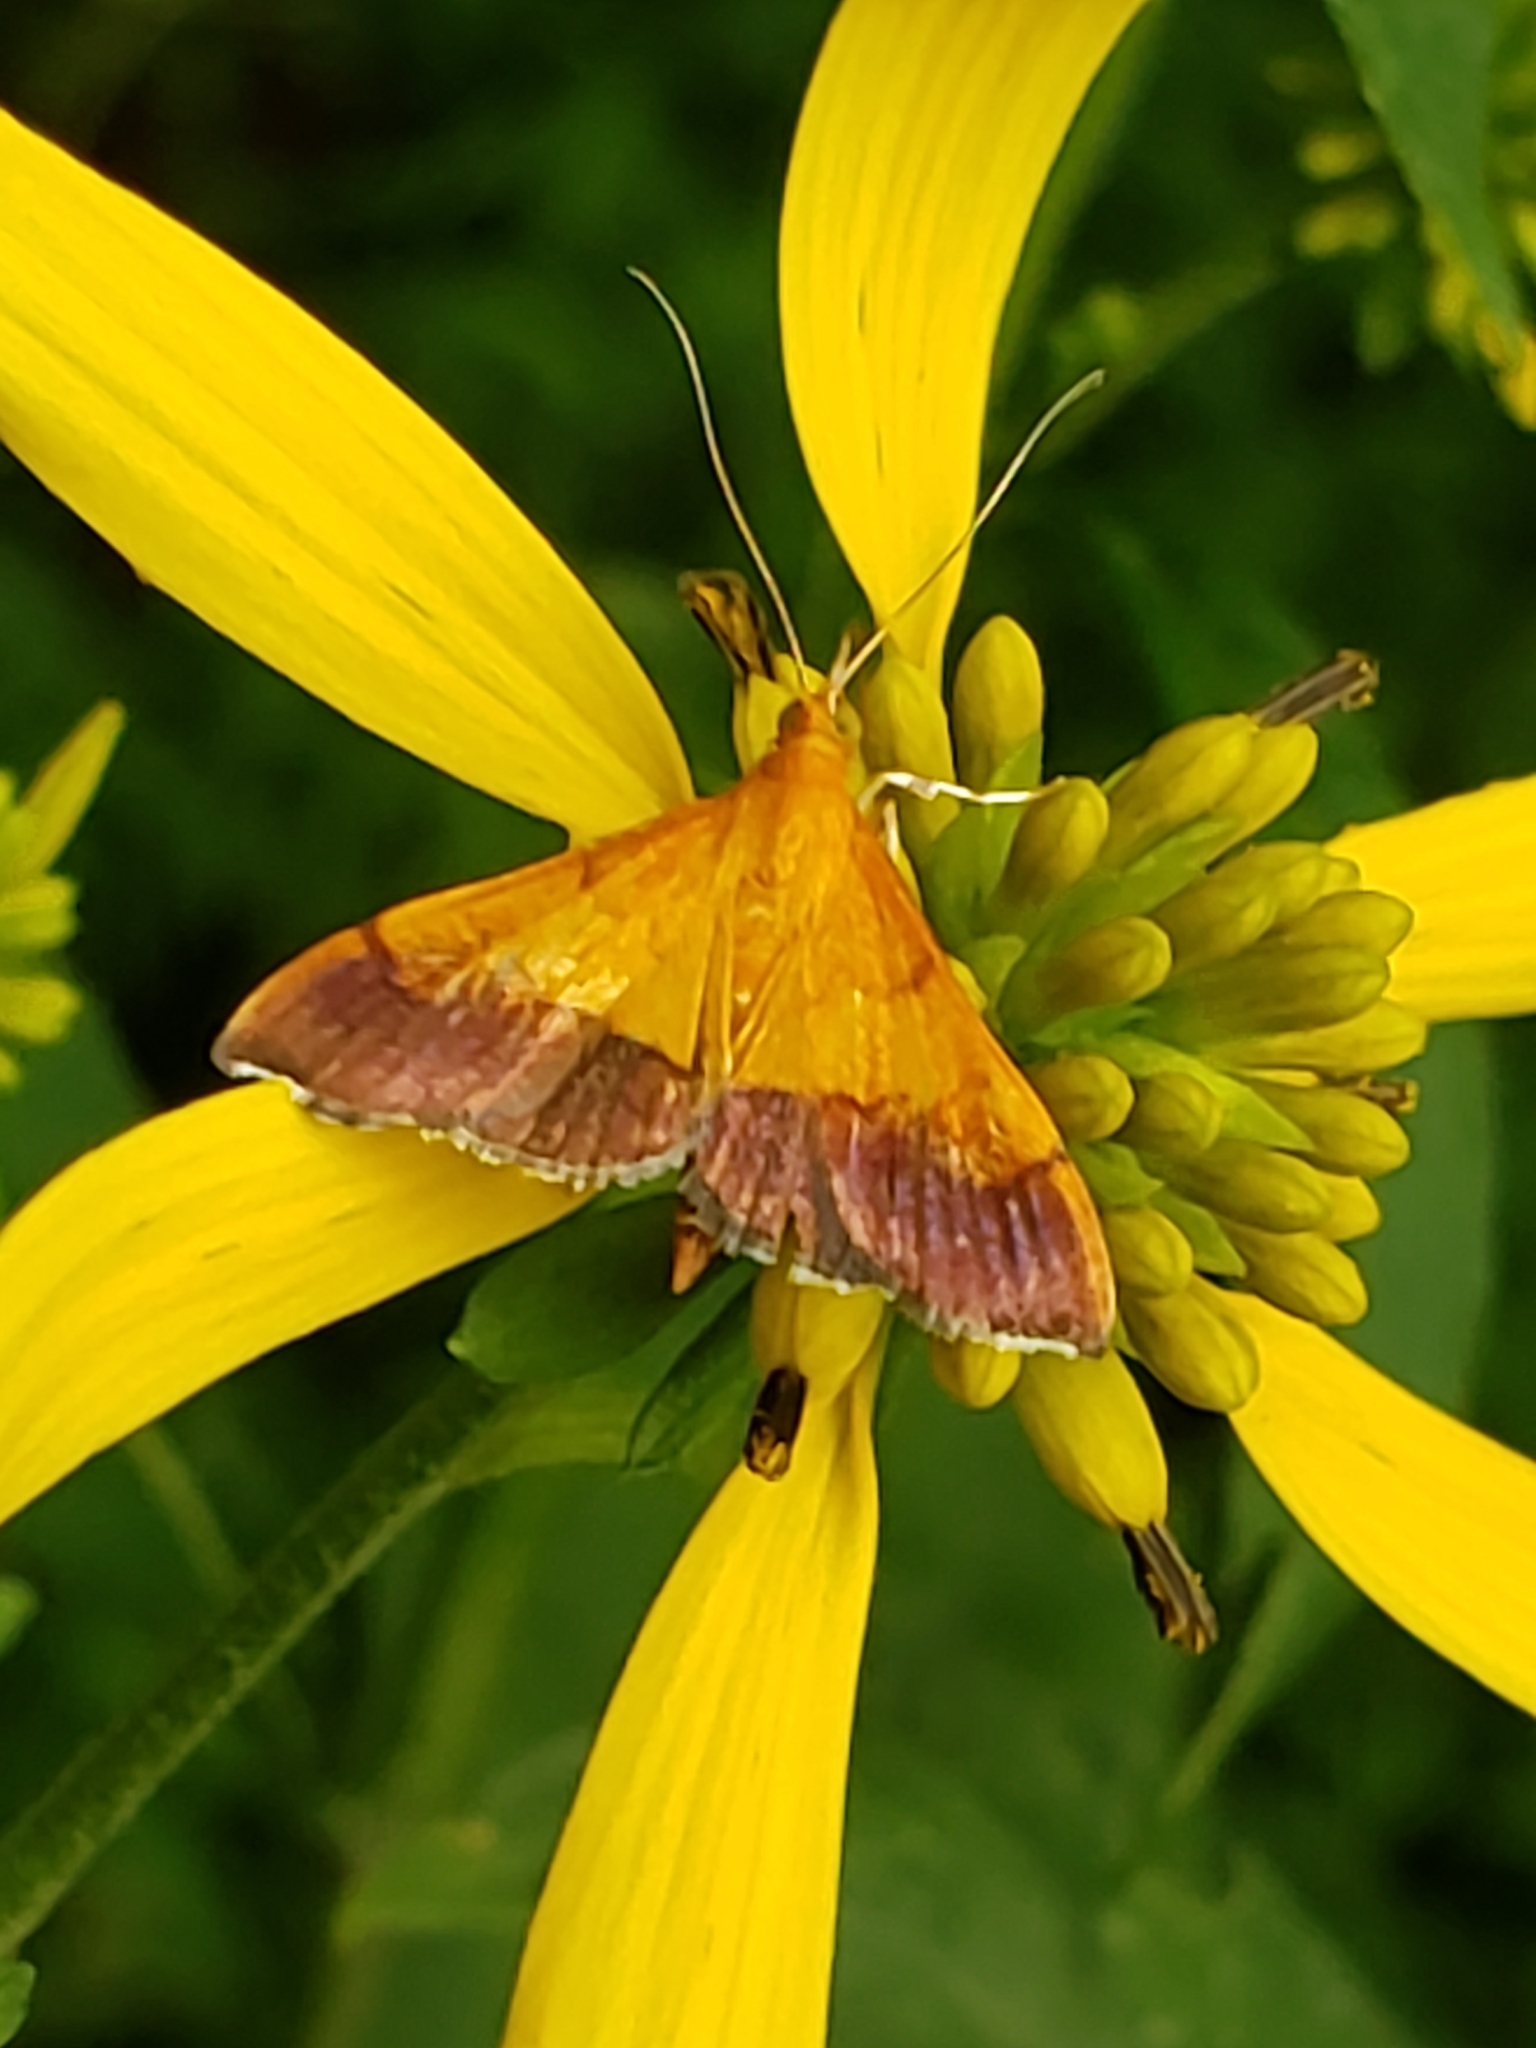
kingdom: Animalia
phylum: Arthropoda
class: Insecta
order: Lepidoptera
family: Crambidae
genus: Pyrausta
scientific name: Pyrausta bicoloralis
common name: Bicolored pyrausta moth
